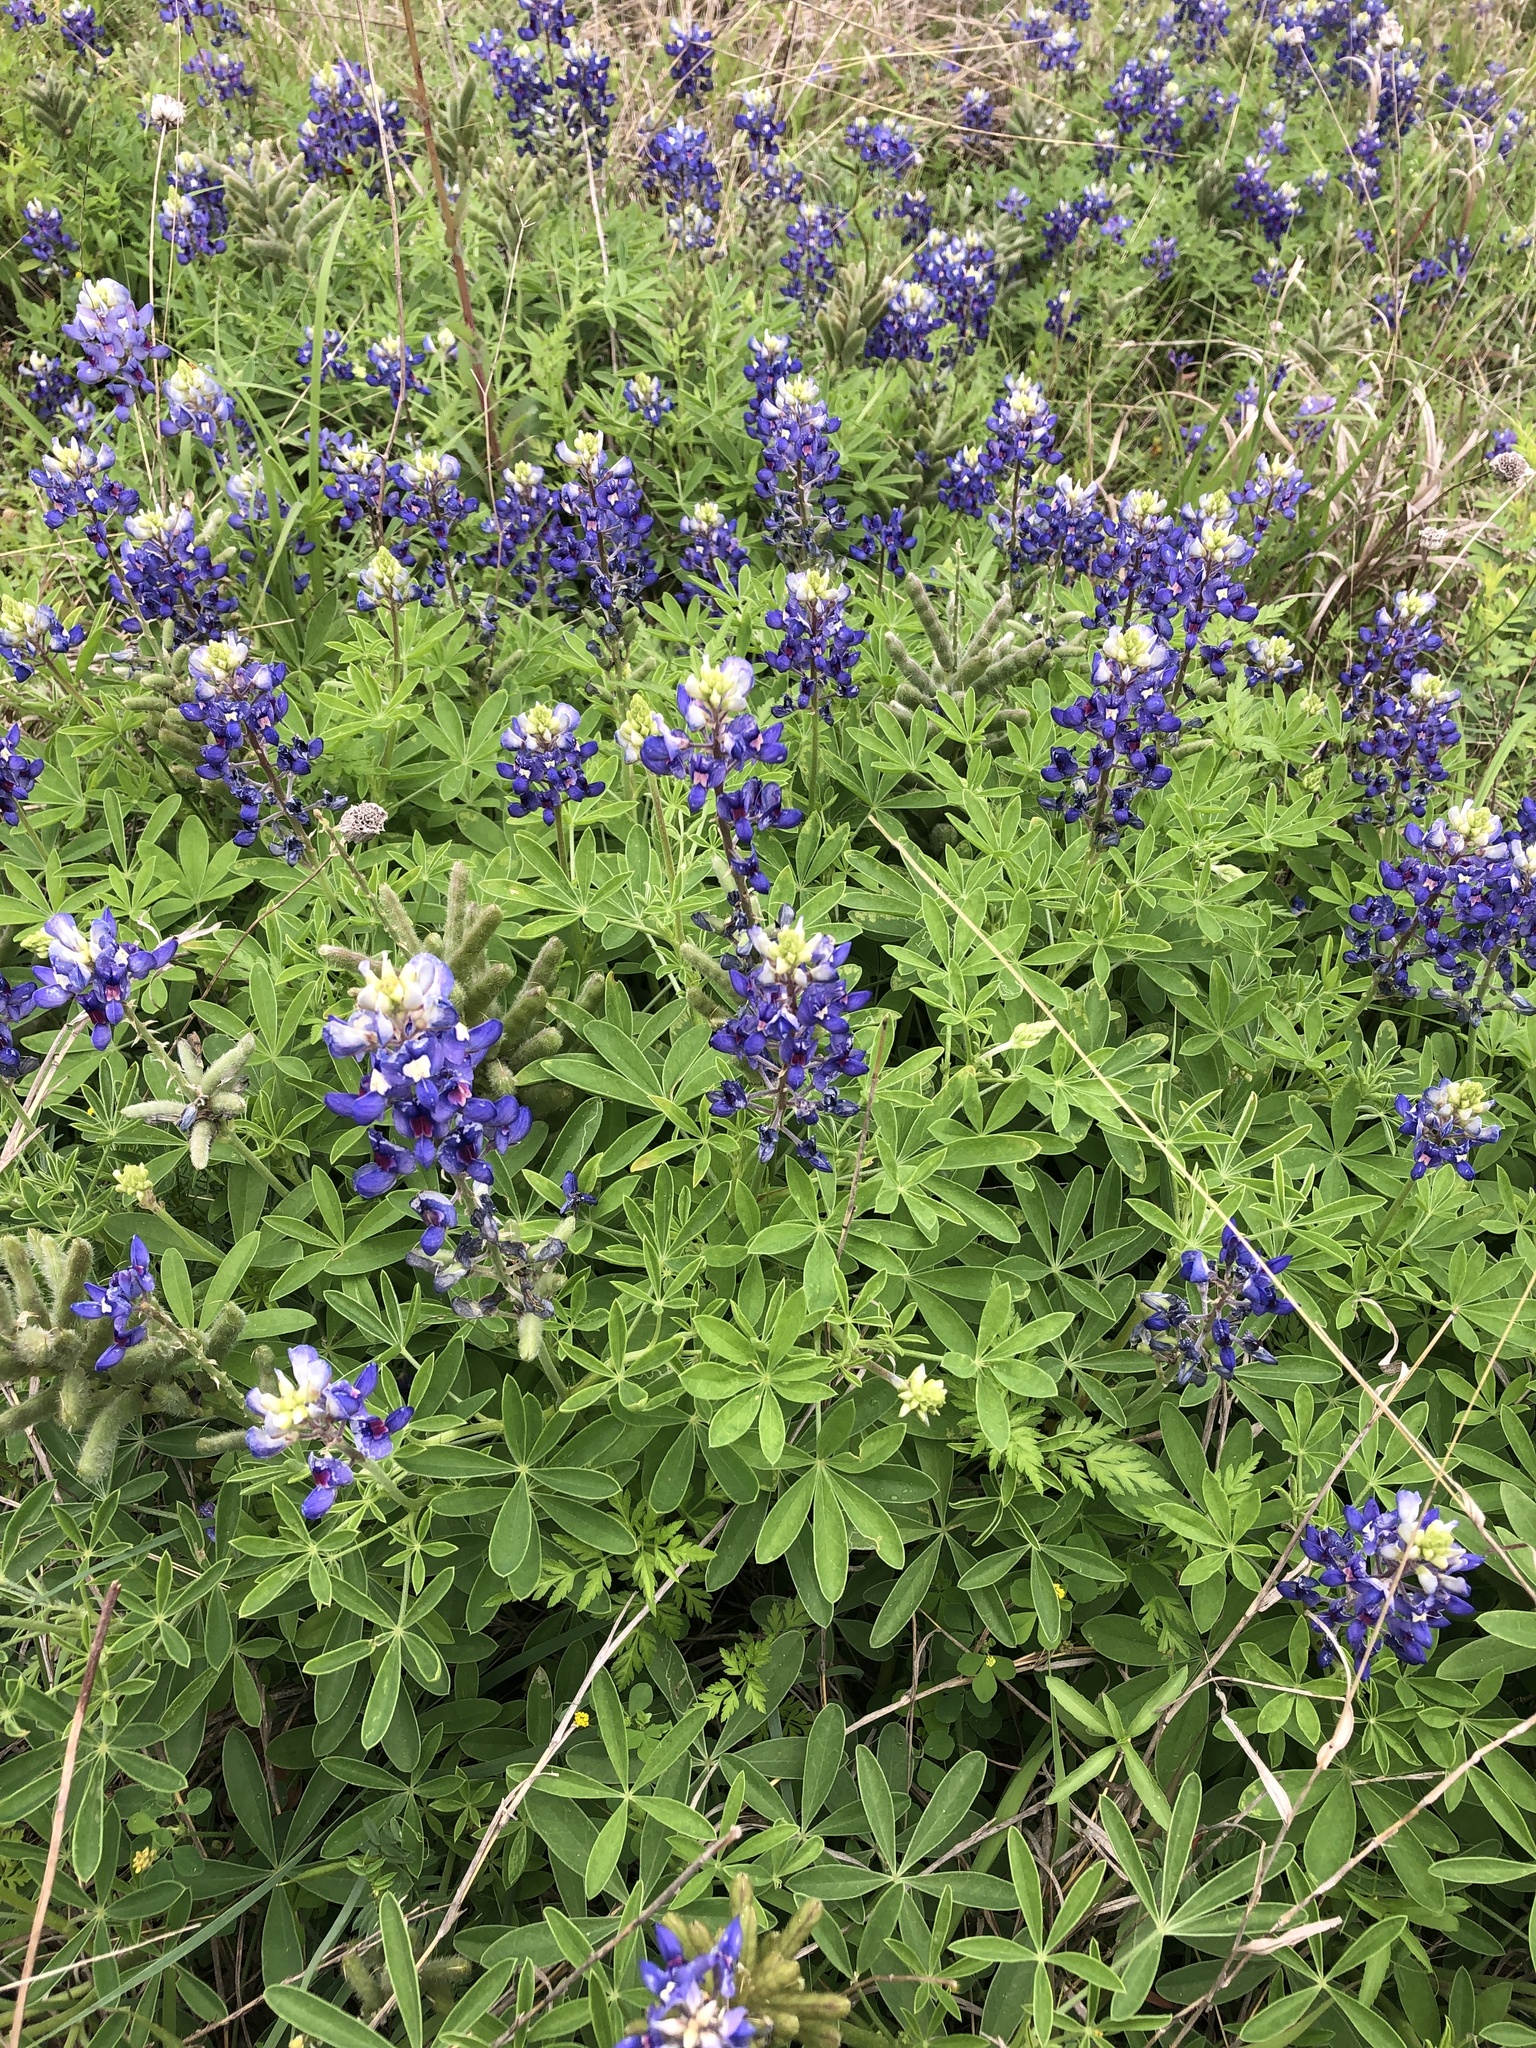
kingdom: Plantae
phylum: Tracheophyta
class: Magnoliopsida
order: Fabales
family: Fabaceae
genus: Lupinus
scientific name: Lupinus texensis
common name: Texas bluebonnet
